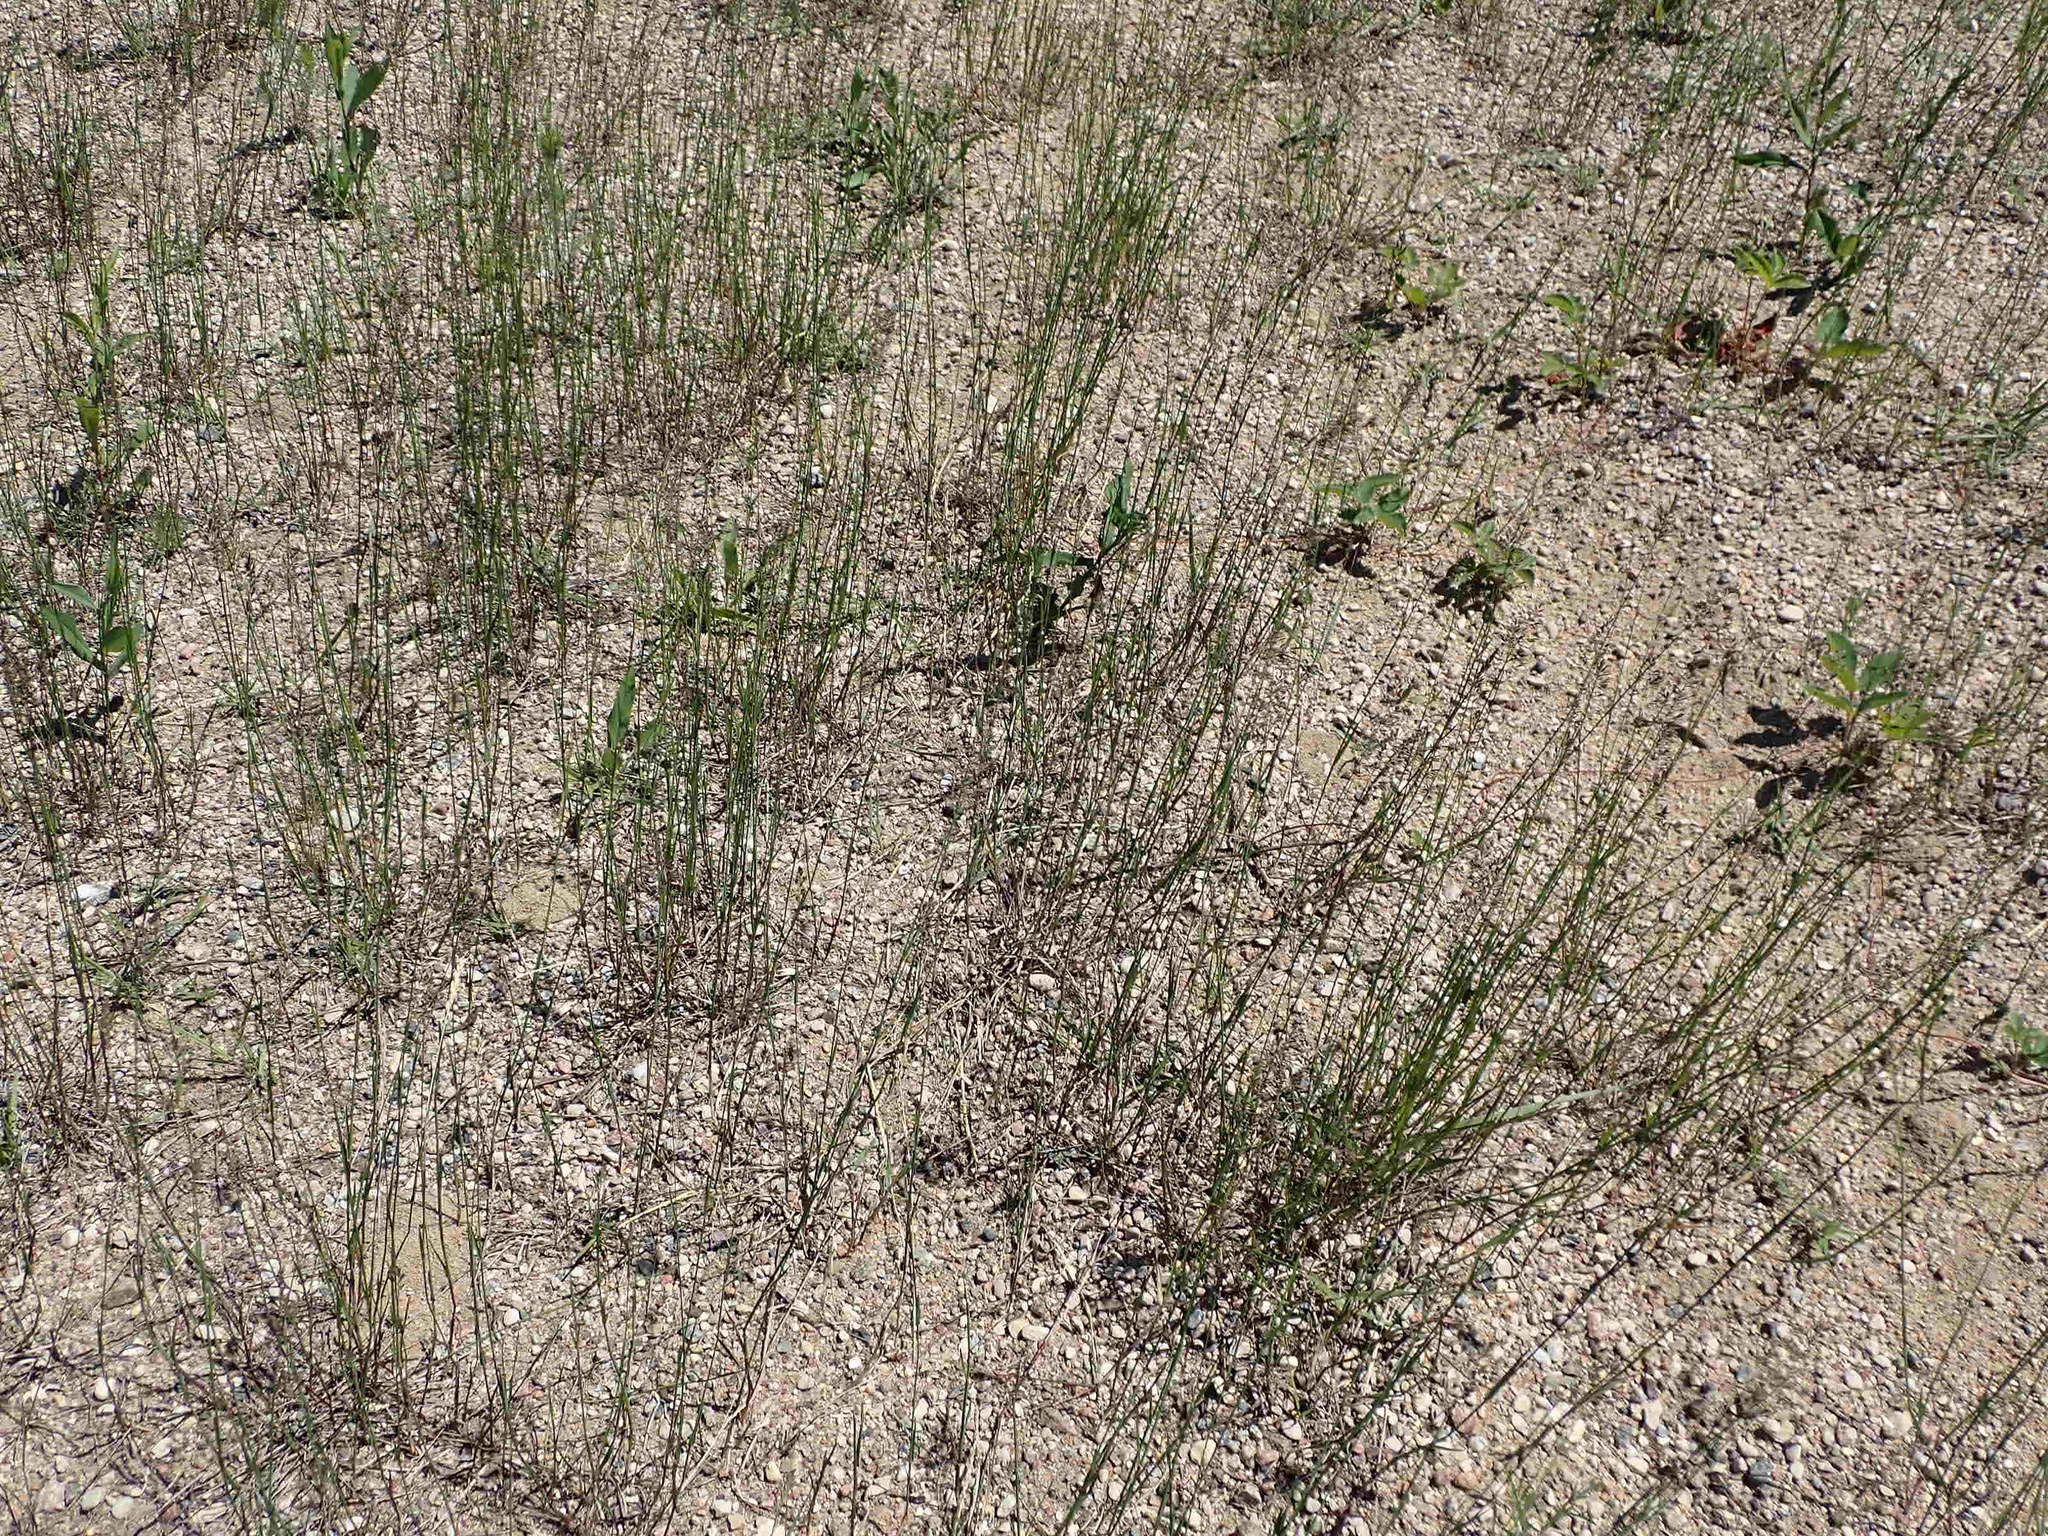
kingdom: Plantae
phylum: Tracheophyta
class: Liliopsida
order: Poales
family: Poaceae
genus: Poa
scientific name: Poa compressa
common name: Canada bluegrass
